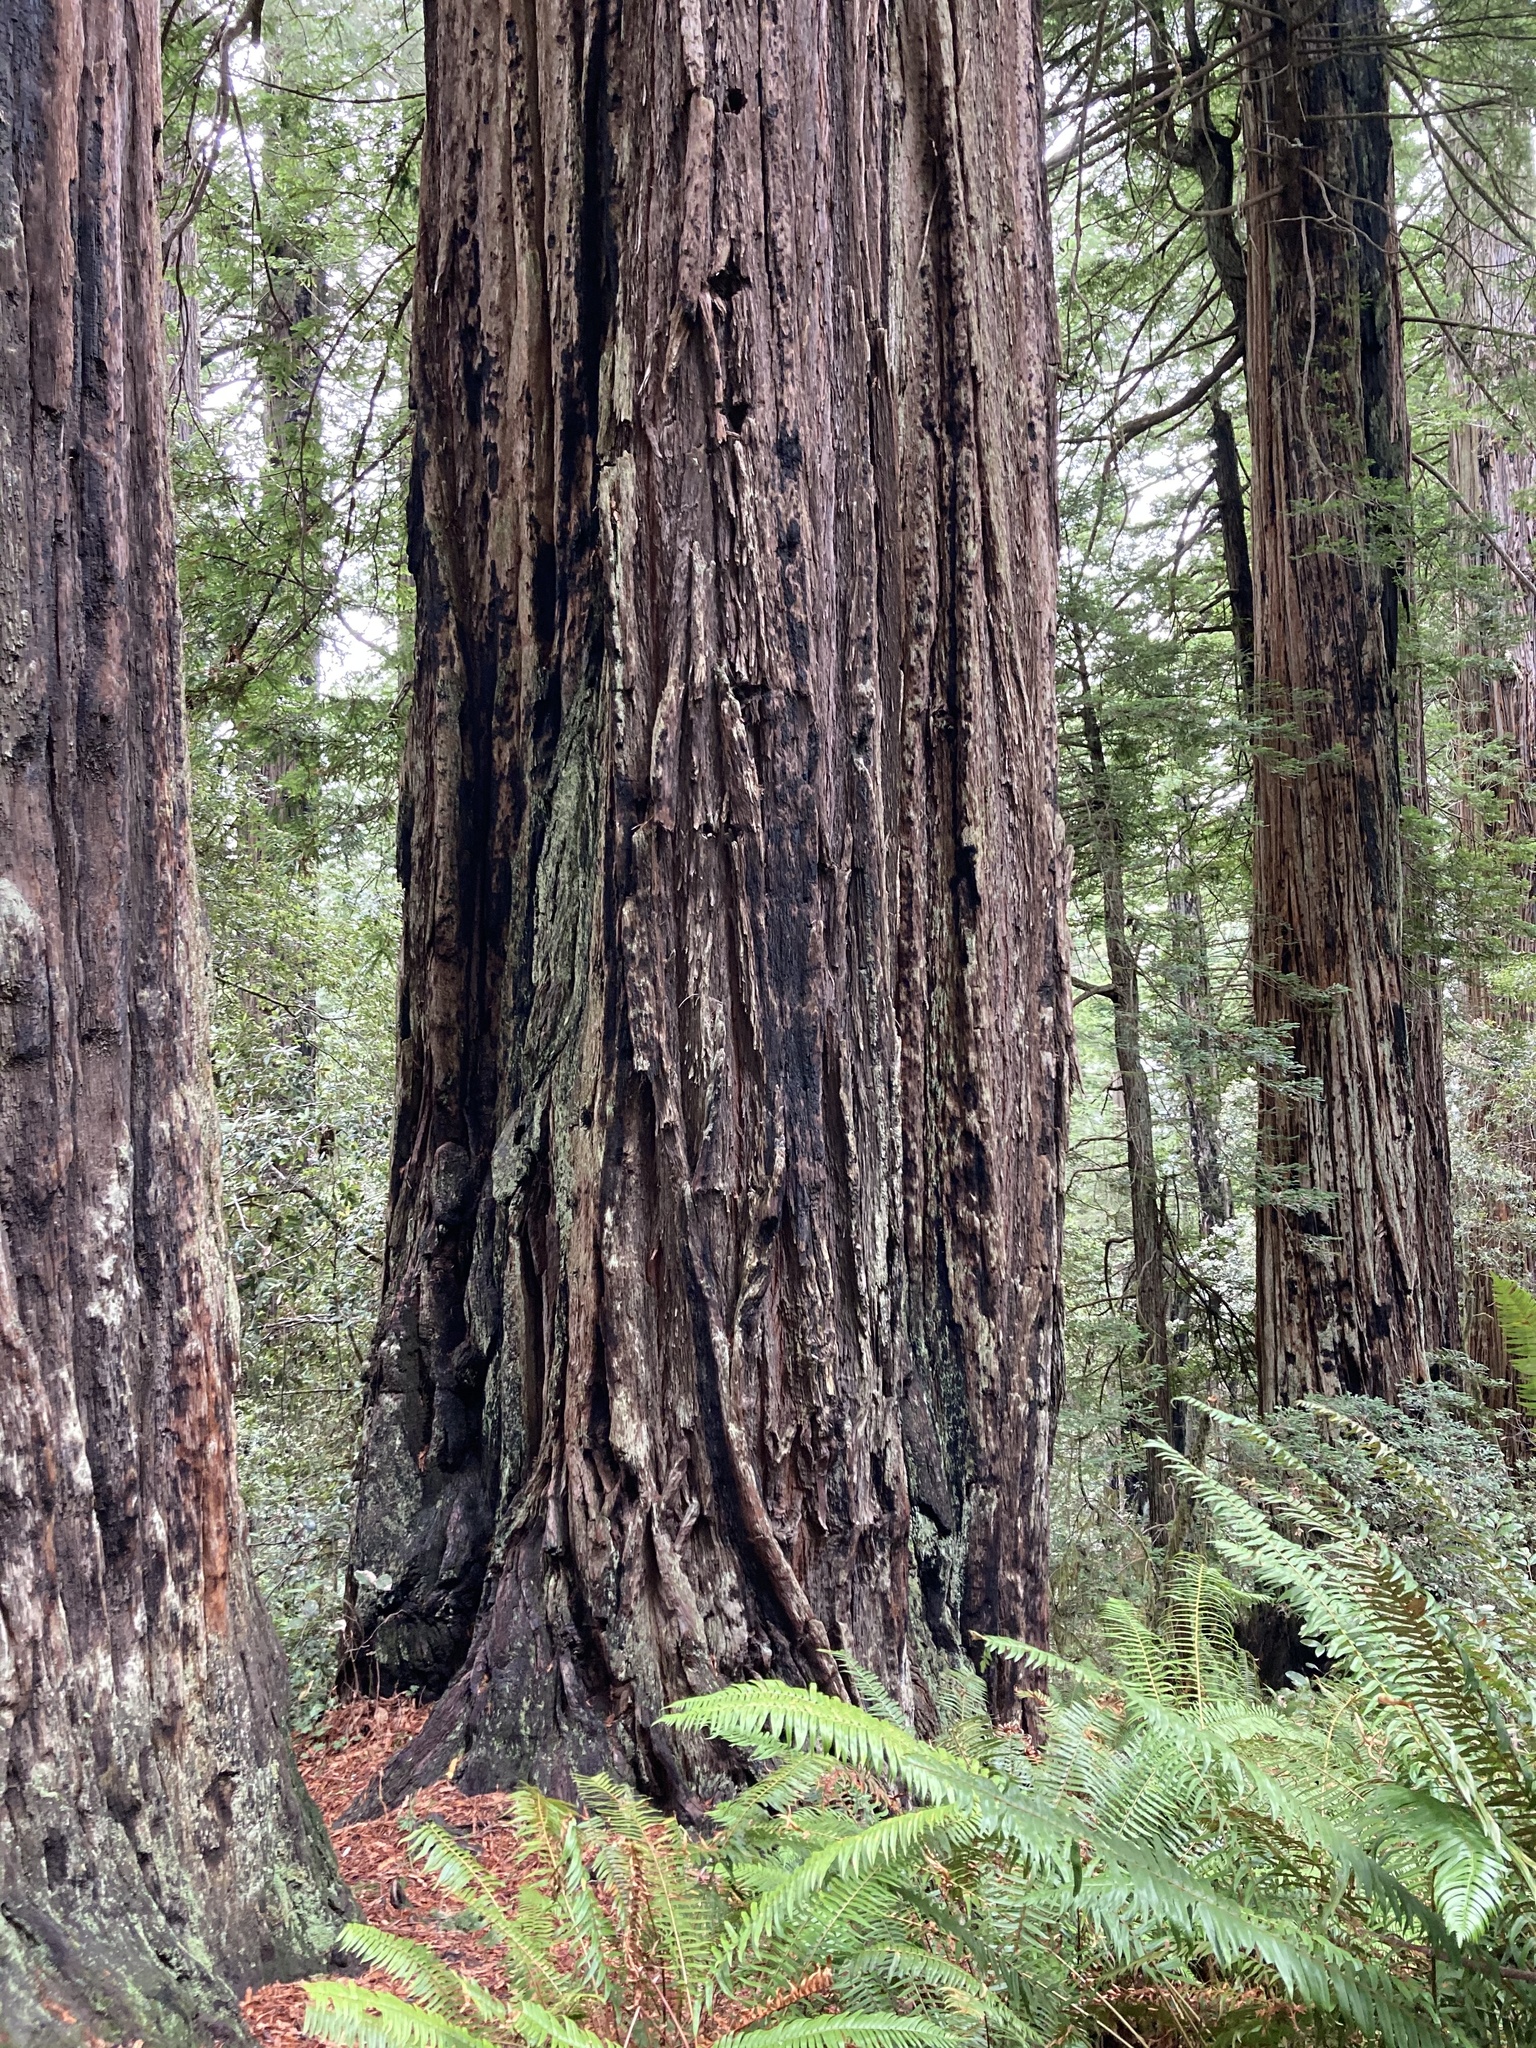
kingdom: Plantae
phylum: Tracheophyta
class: Pinopsida
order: Pinales
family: Cupressaceae
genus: Sequoia
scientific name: Sequoia sempervirens
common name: Coast redwood
